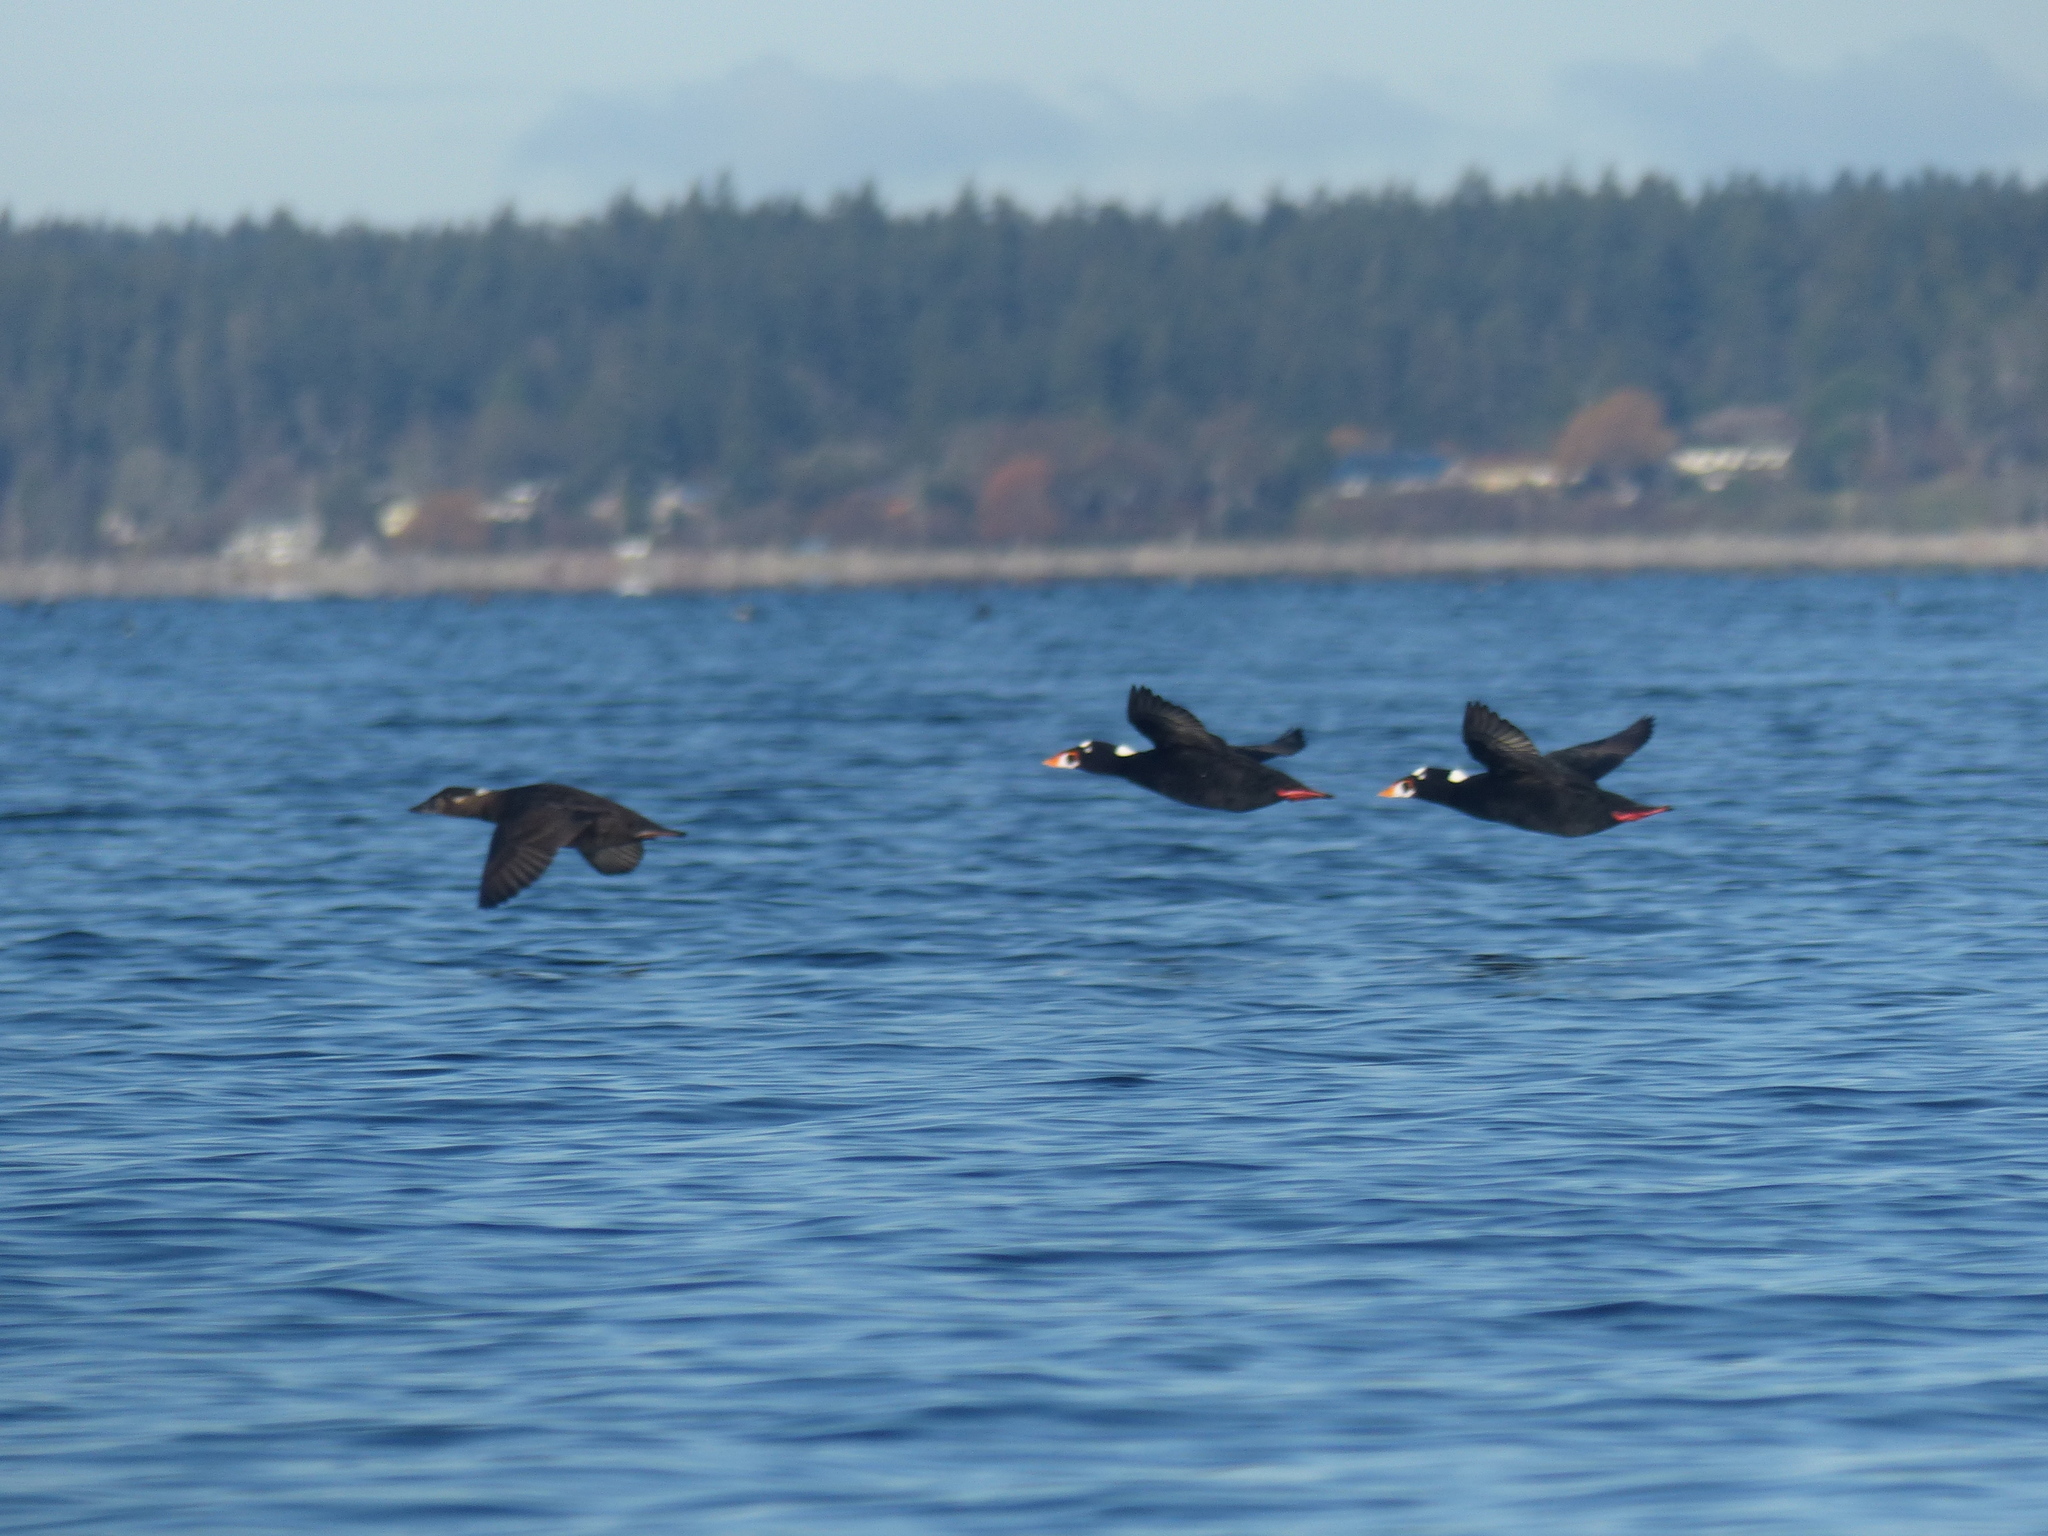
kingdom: Animalia
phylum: Chordata
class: Aves
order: Anseriformes
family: Anatidae
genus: Melanitta
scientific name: Melanitta perspicillata
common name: Surf scoter
